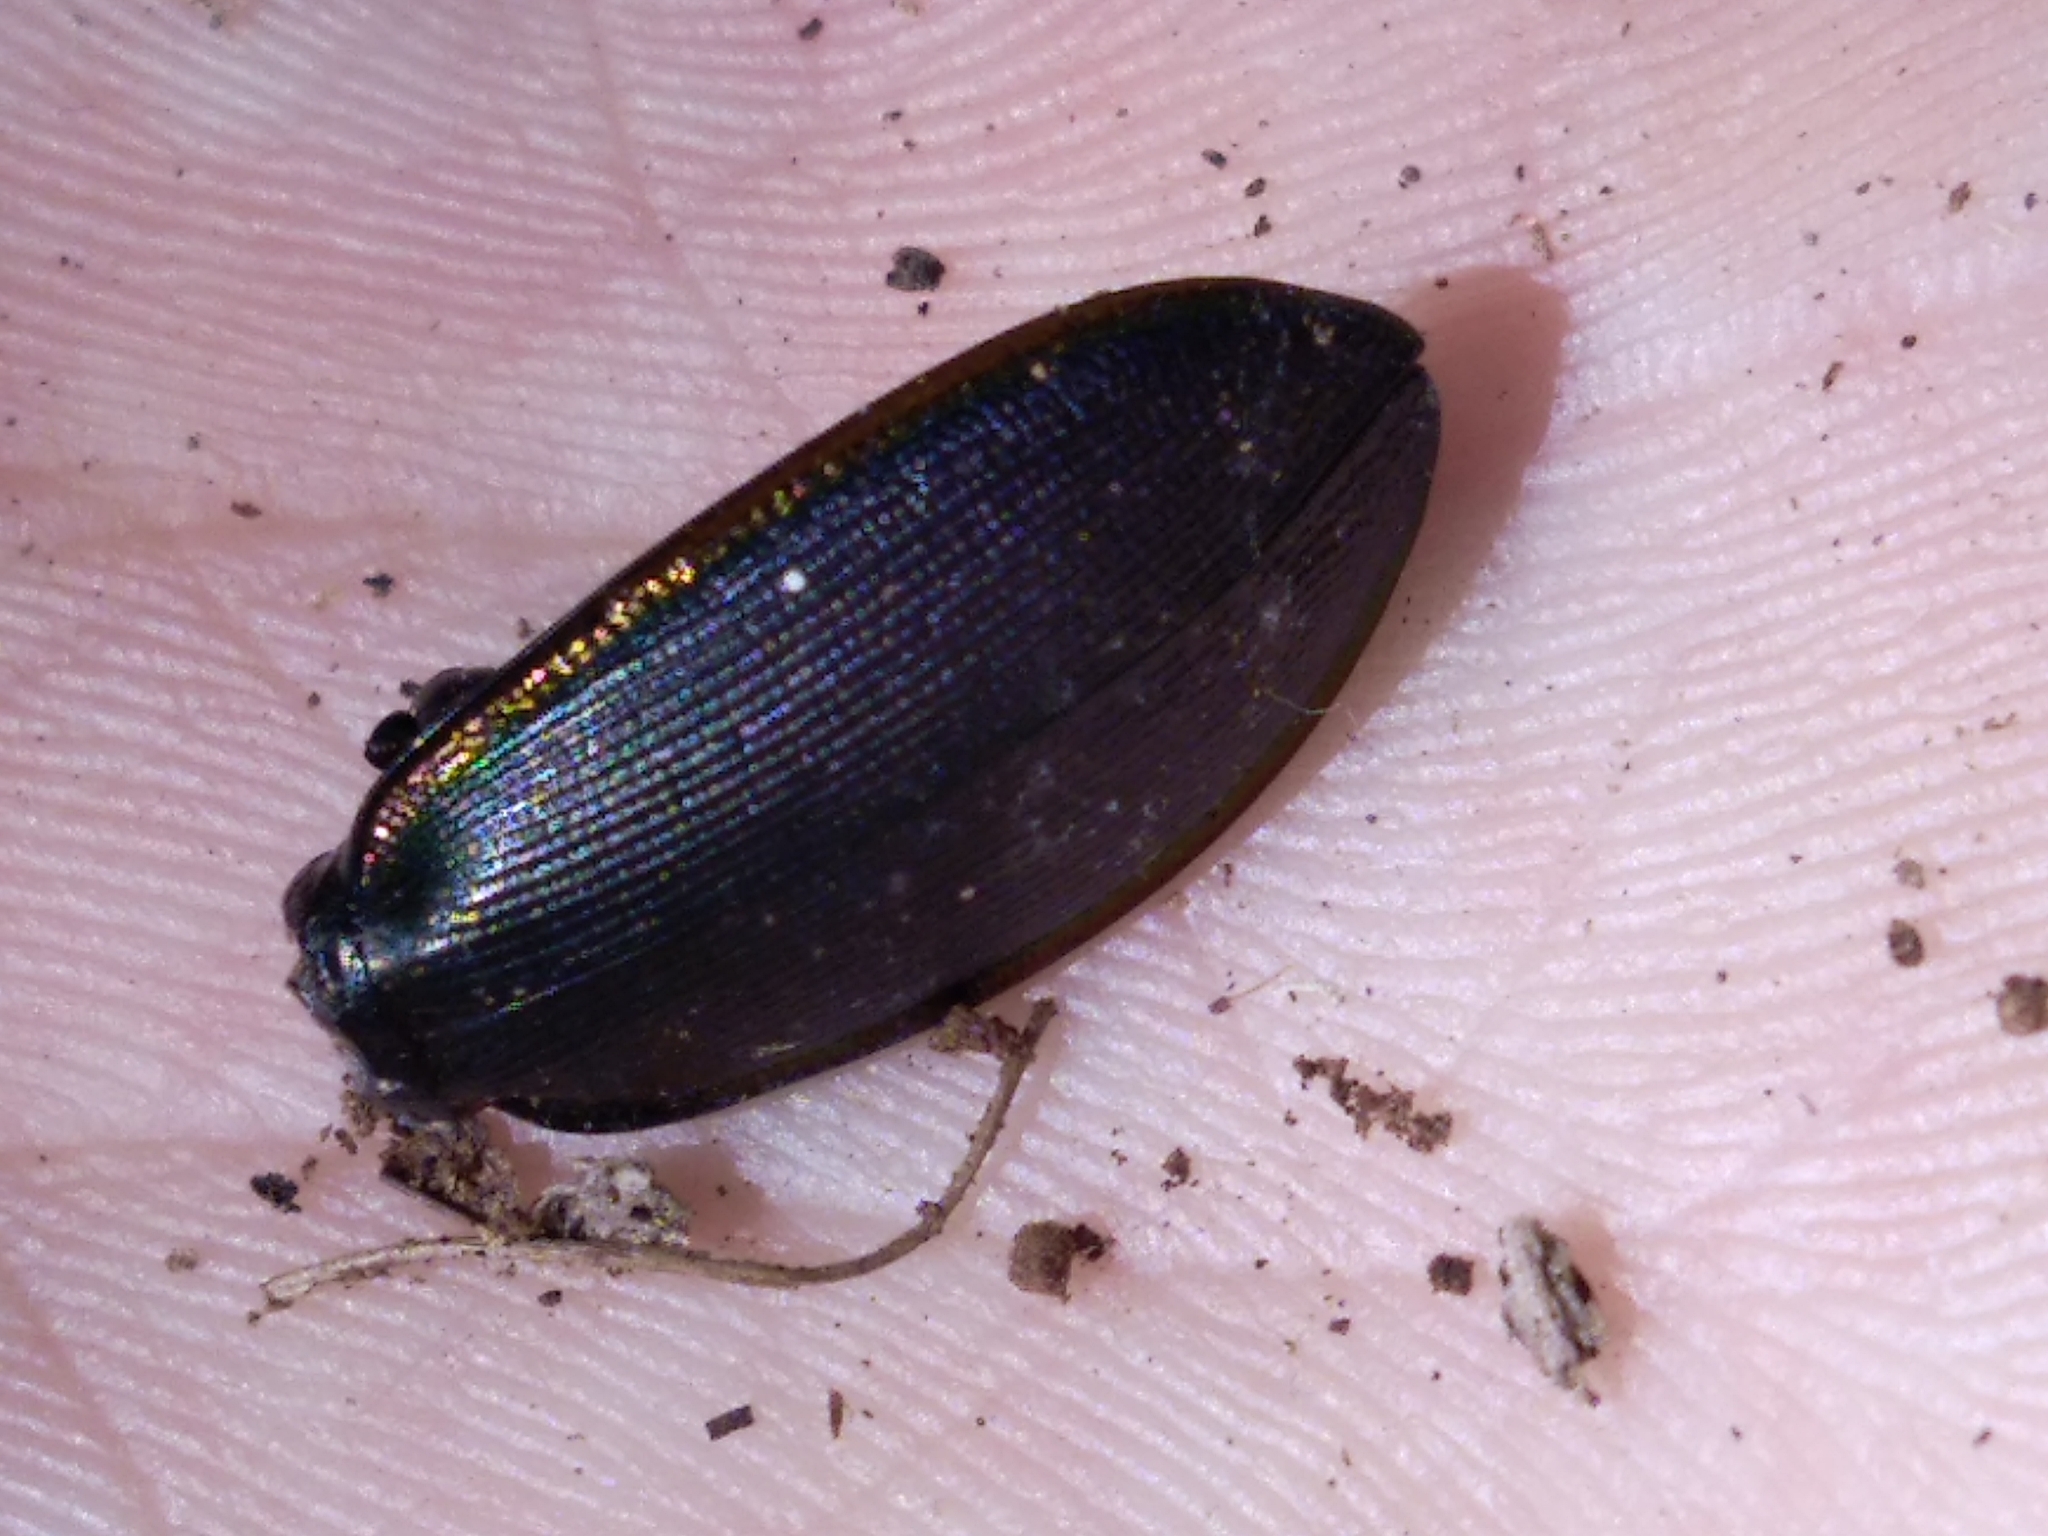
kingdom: Animalia
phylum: Arthropoda
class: Insecta
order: Coleoptera
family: Carabidae
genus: Carabus
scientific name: Carabus purpurascens
